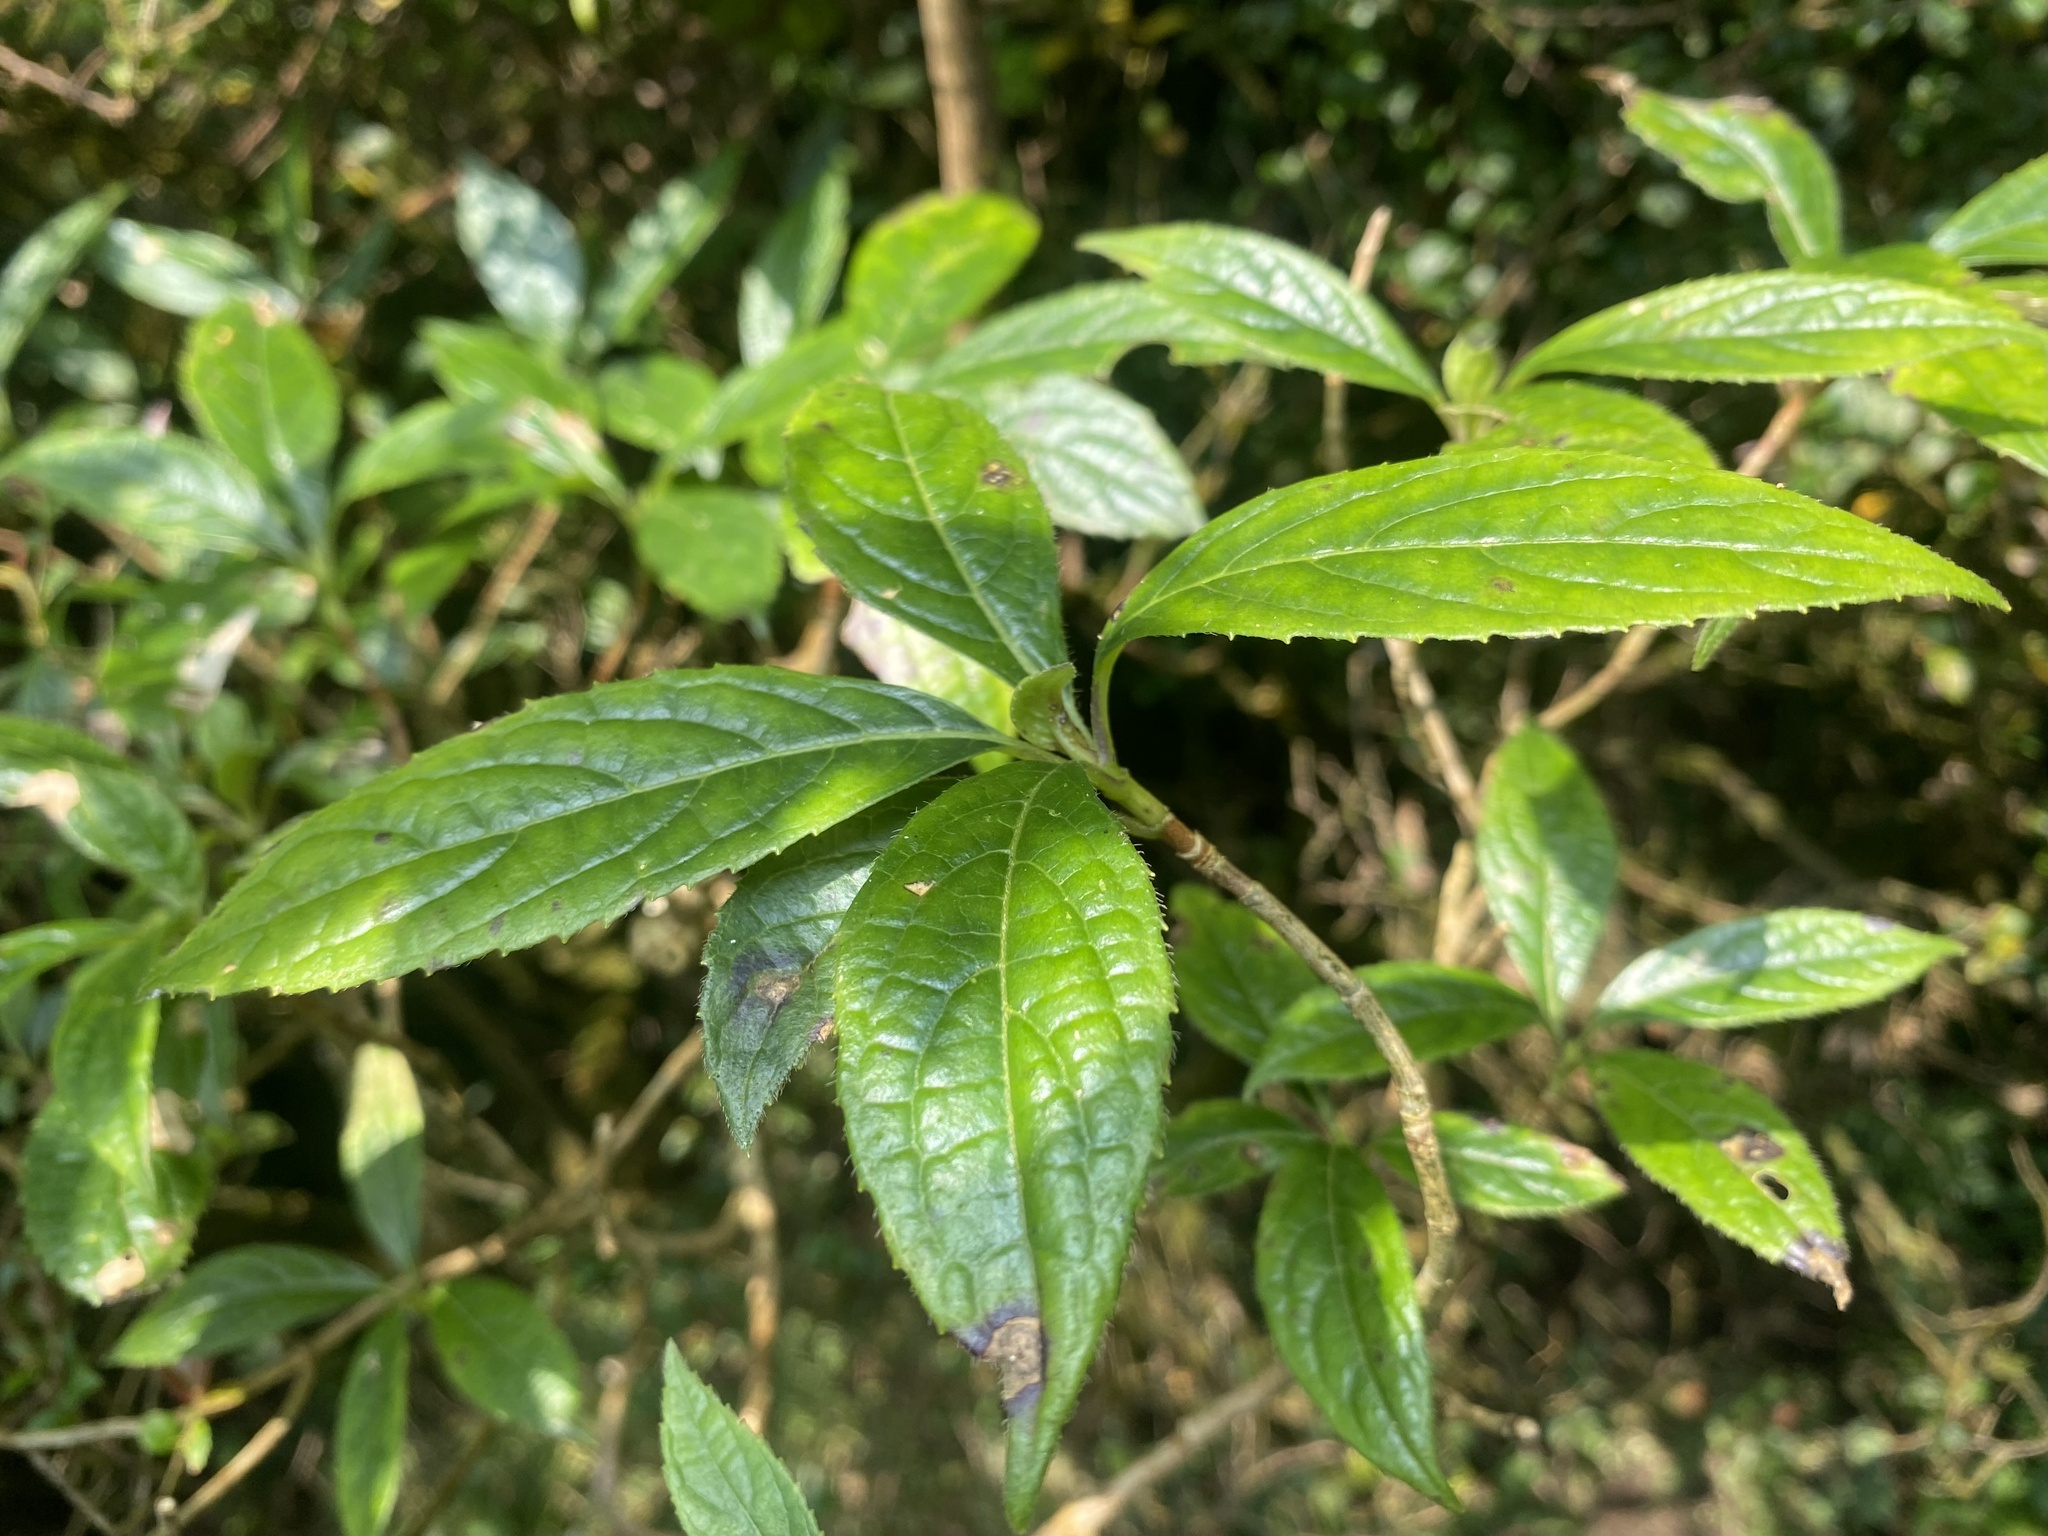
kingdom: Plantae
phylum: Tracheophyta
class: Magnoliopsida
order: Cornales
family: Hydrangeaceae
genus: Hydrangea
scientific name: Hydrangea chinensis
